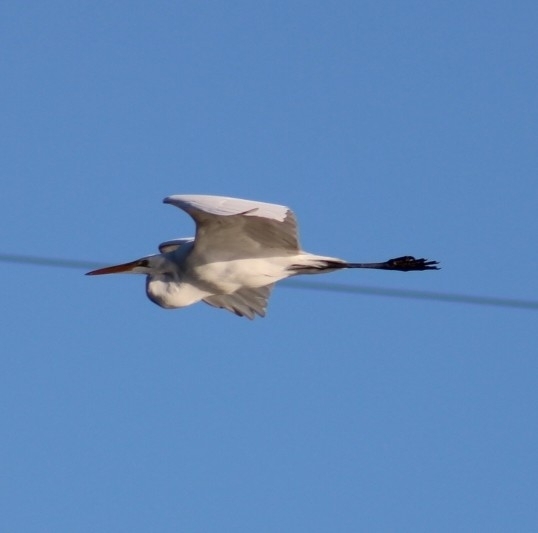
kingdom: Animalia
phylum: Chordata
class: Aves
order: Pelecaniformes
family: Ardeidae
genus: Ardea
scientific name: Ardea alba
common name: Great egret
